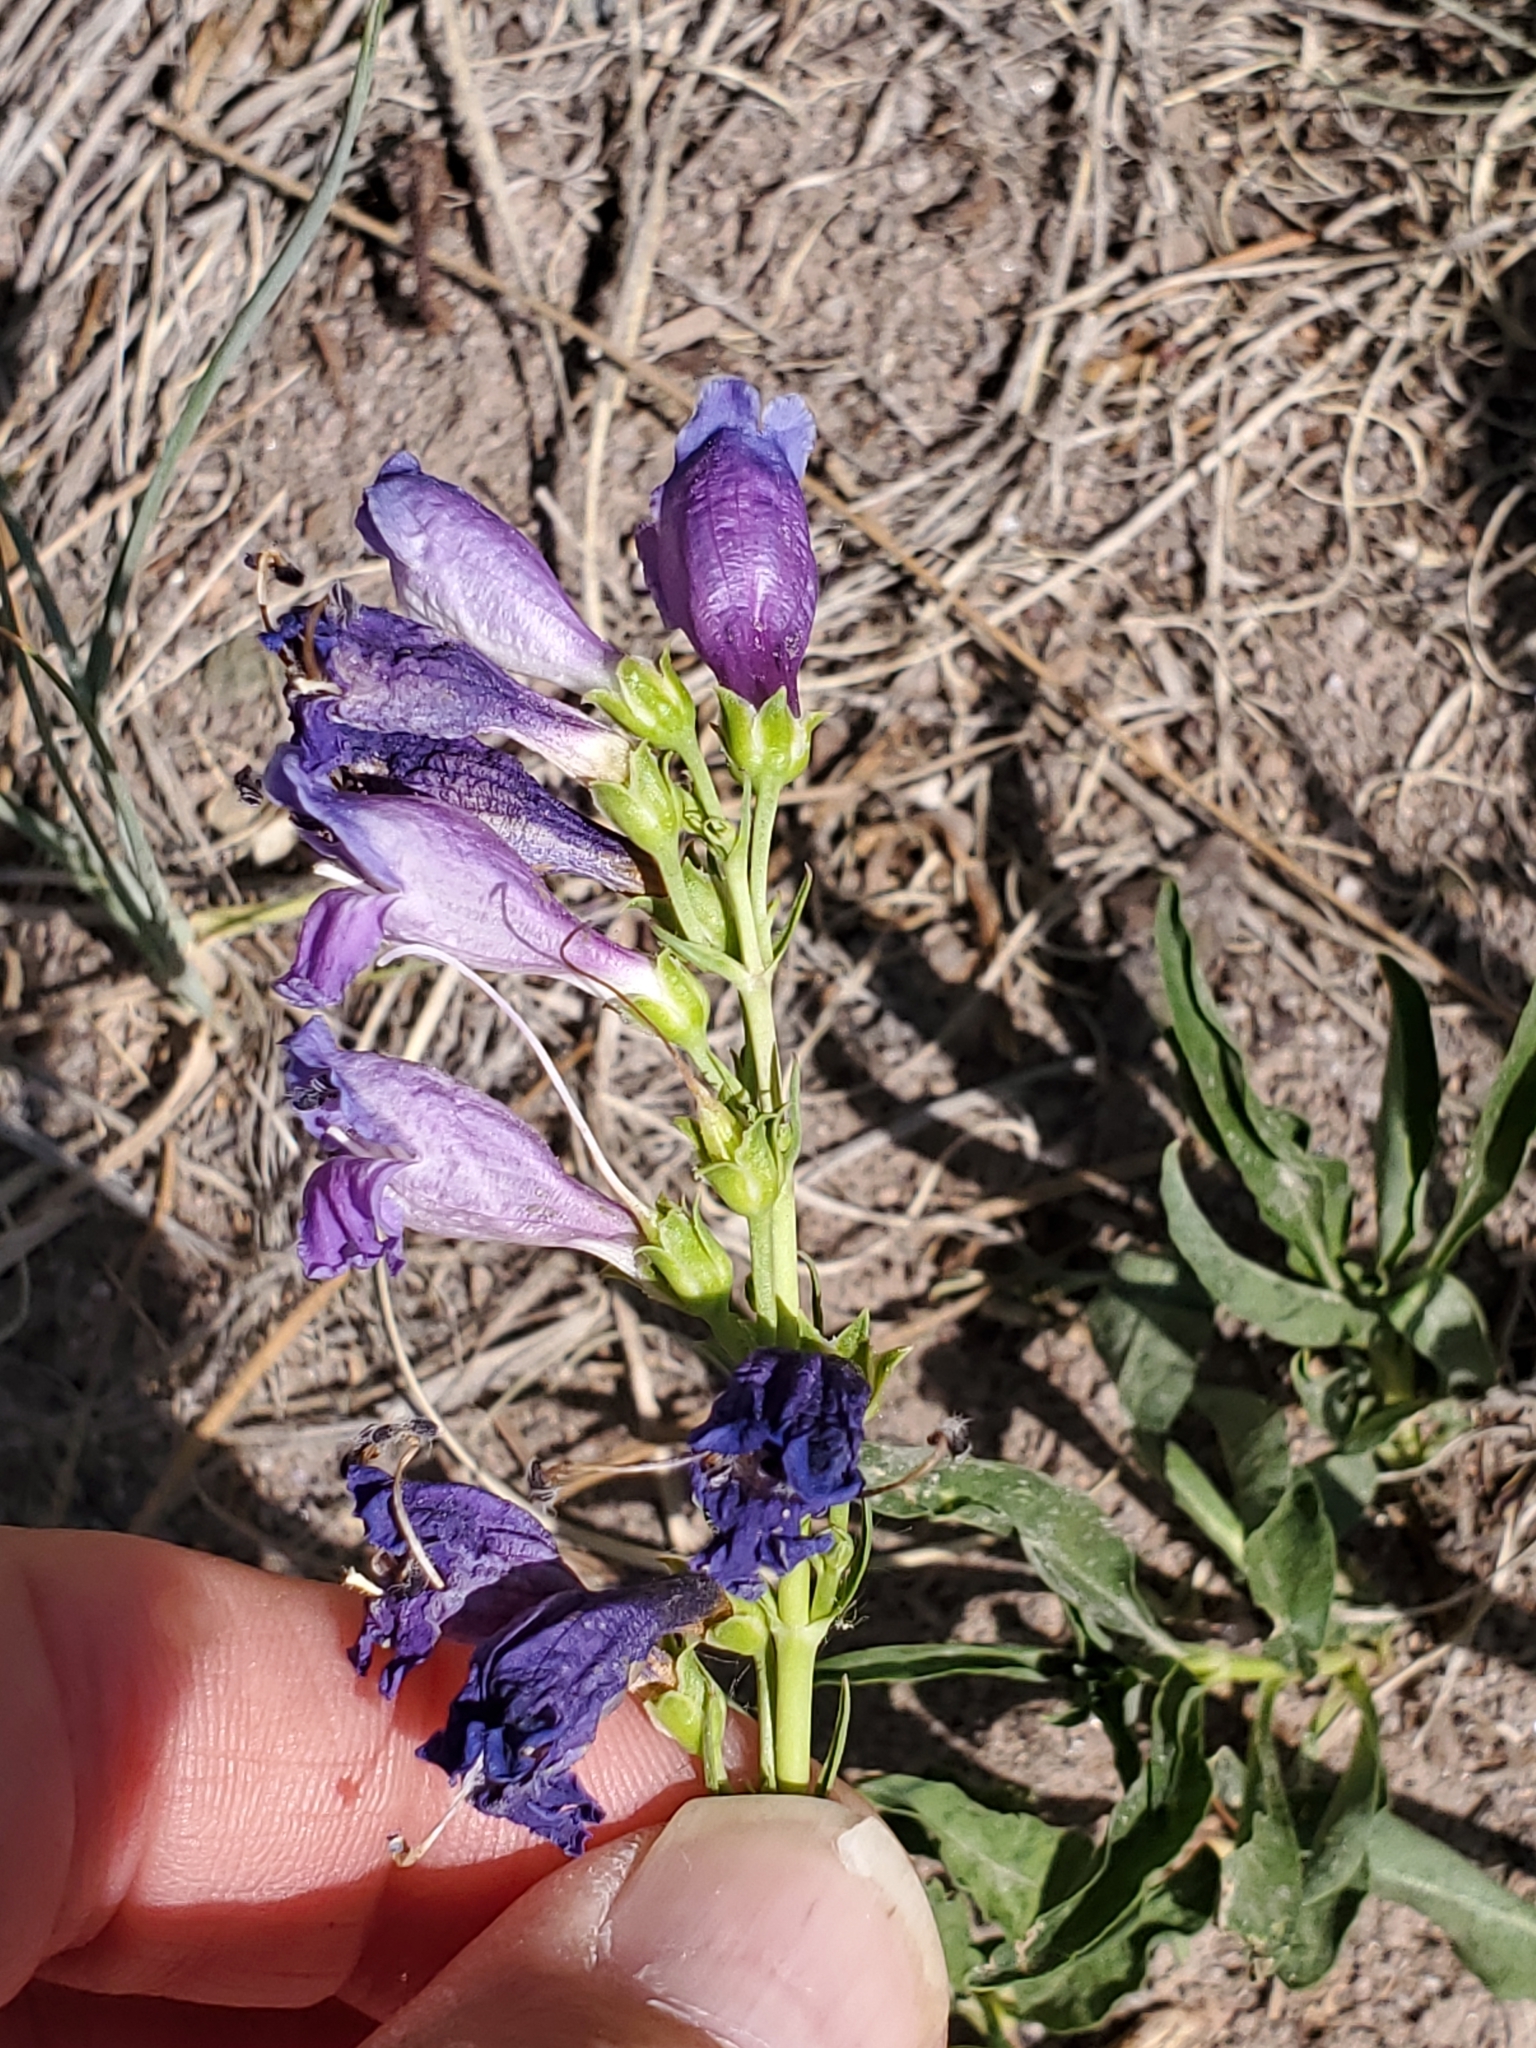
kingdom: Plantae
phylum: Tracheophyta
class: Magnoliopsida
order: Lamiales
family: Plantaginaceae
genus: Penstemon
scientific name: Penstemon strictus
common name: Rocky mountain penstemon
